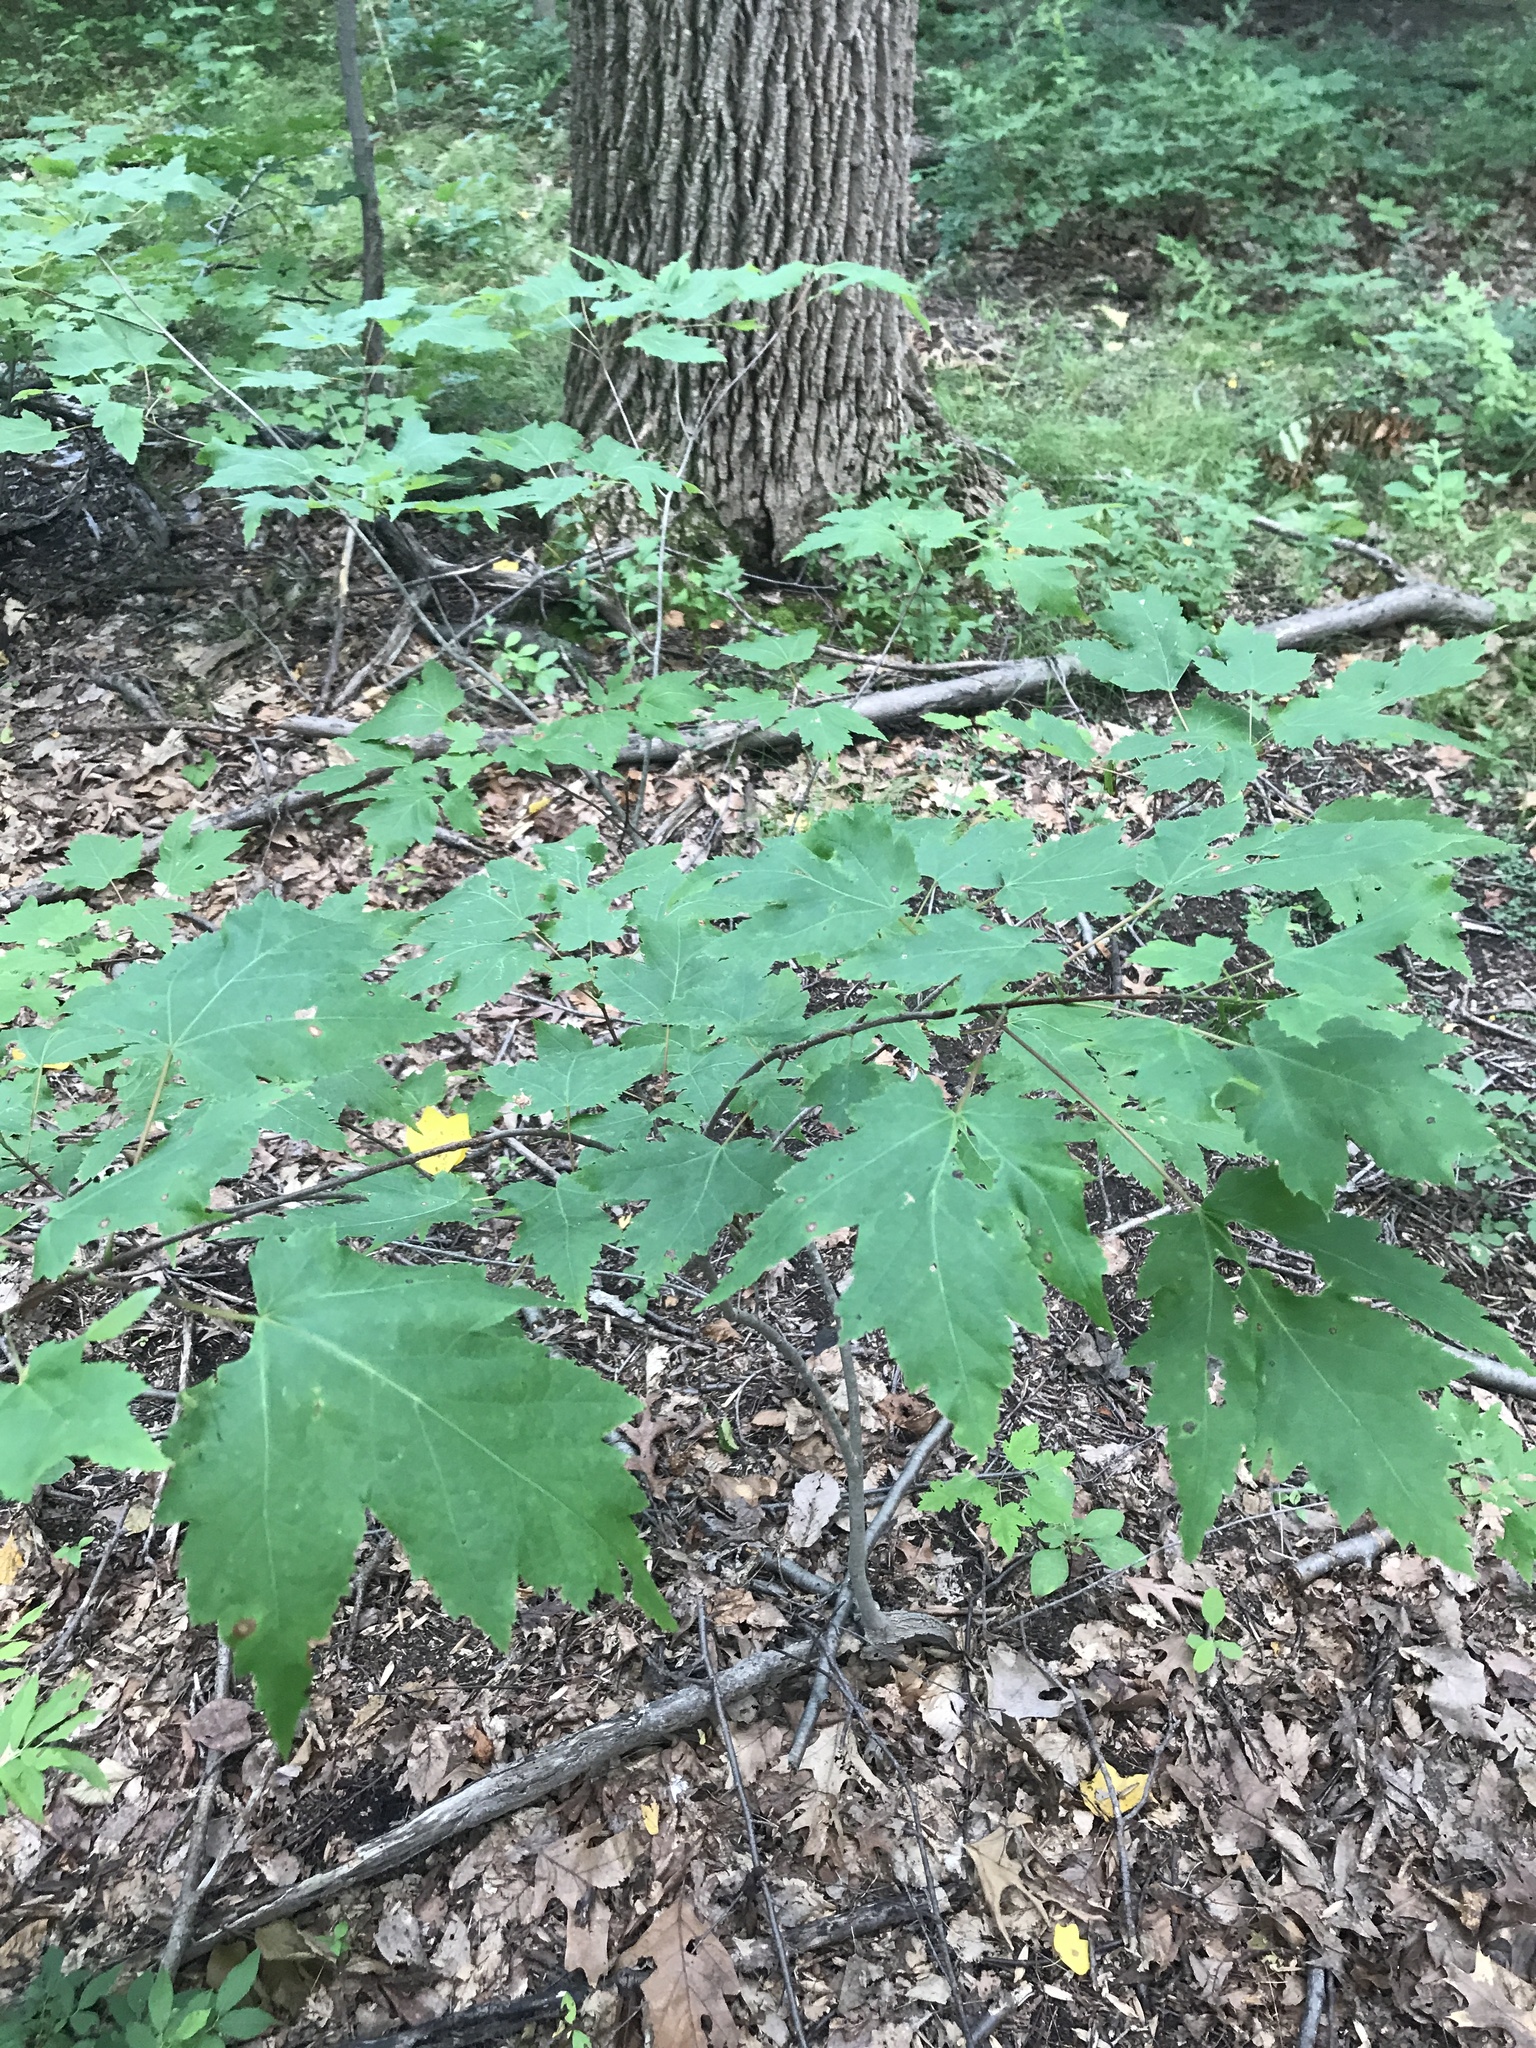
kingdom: Plantae
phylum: Tracheophyta
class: Magnoliopsida
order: Sapindales
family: Sapindaceae
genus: Acer
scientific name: Acer rubrum
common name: Red maple
